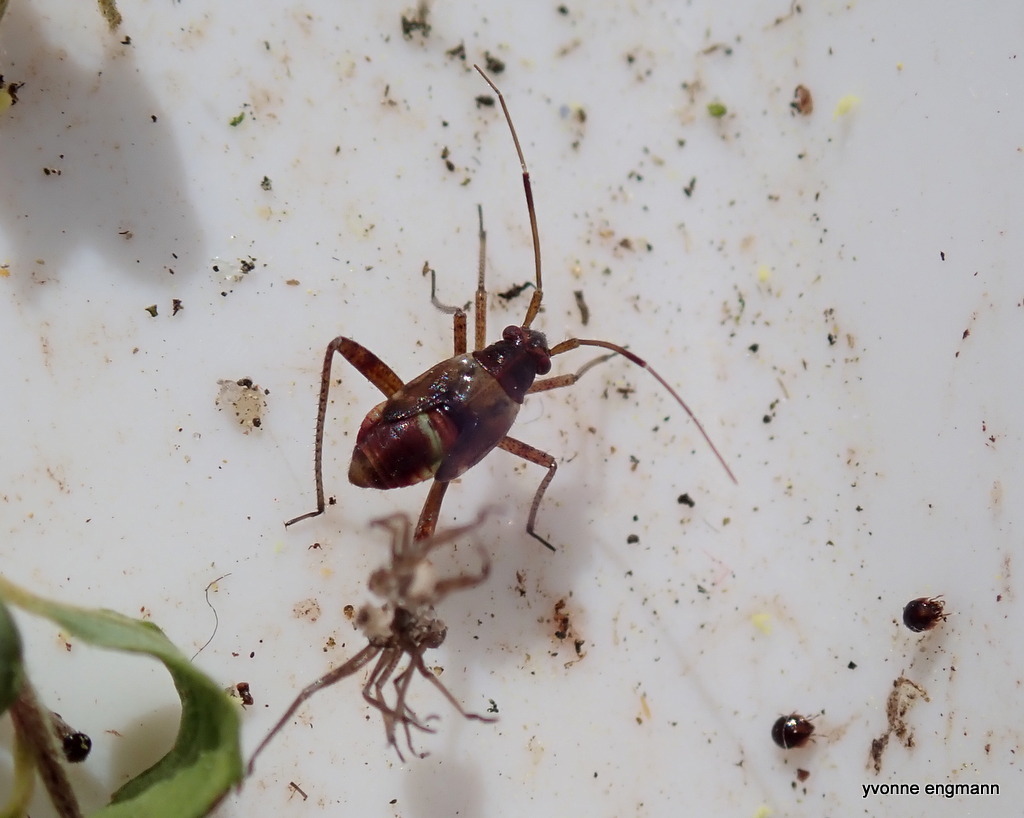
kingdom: Animalia
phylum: Arthropoda
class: Insecta
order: Hemiptera
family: Miridae
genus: Adelphocoris
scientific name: Adelphocoris seticornis
